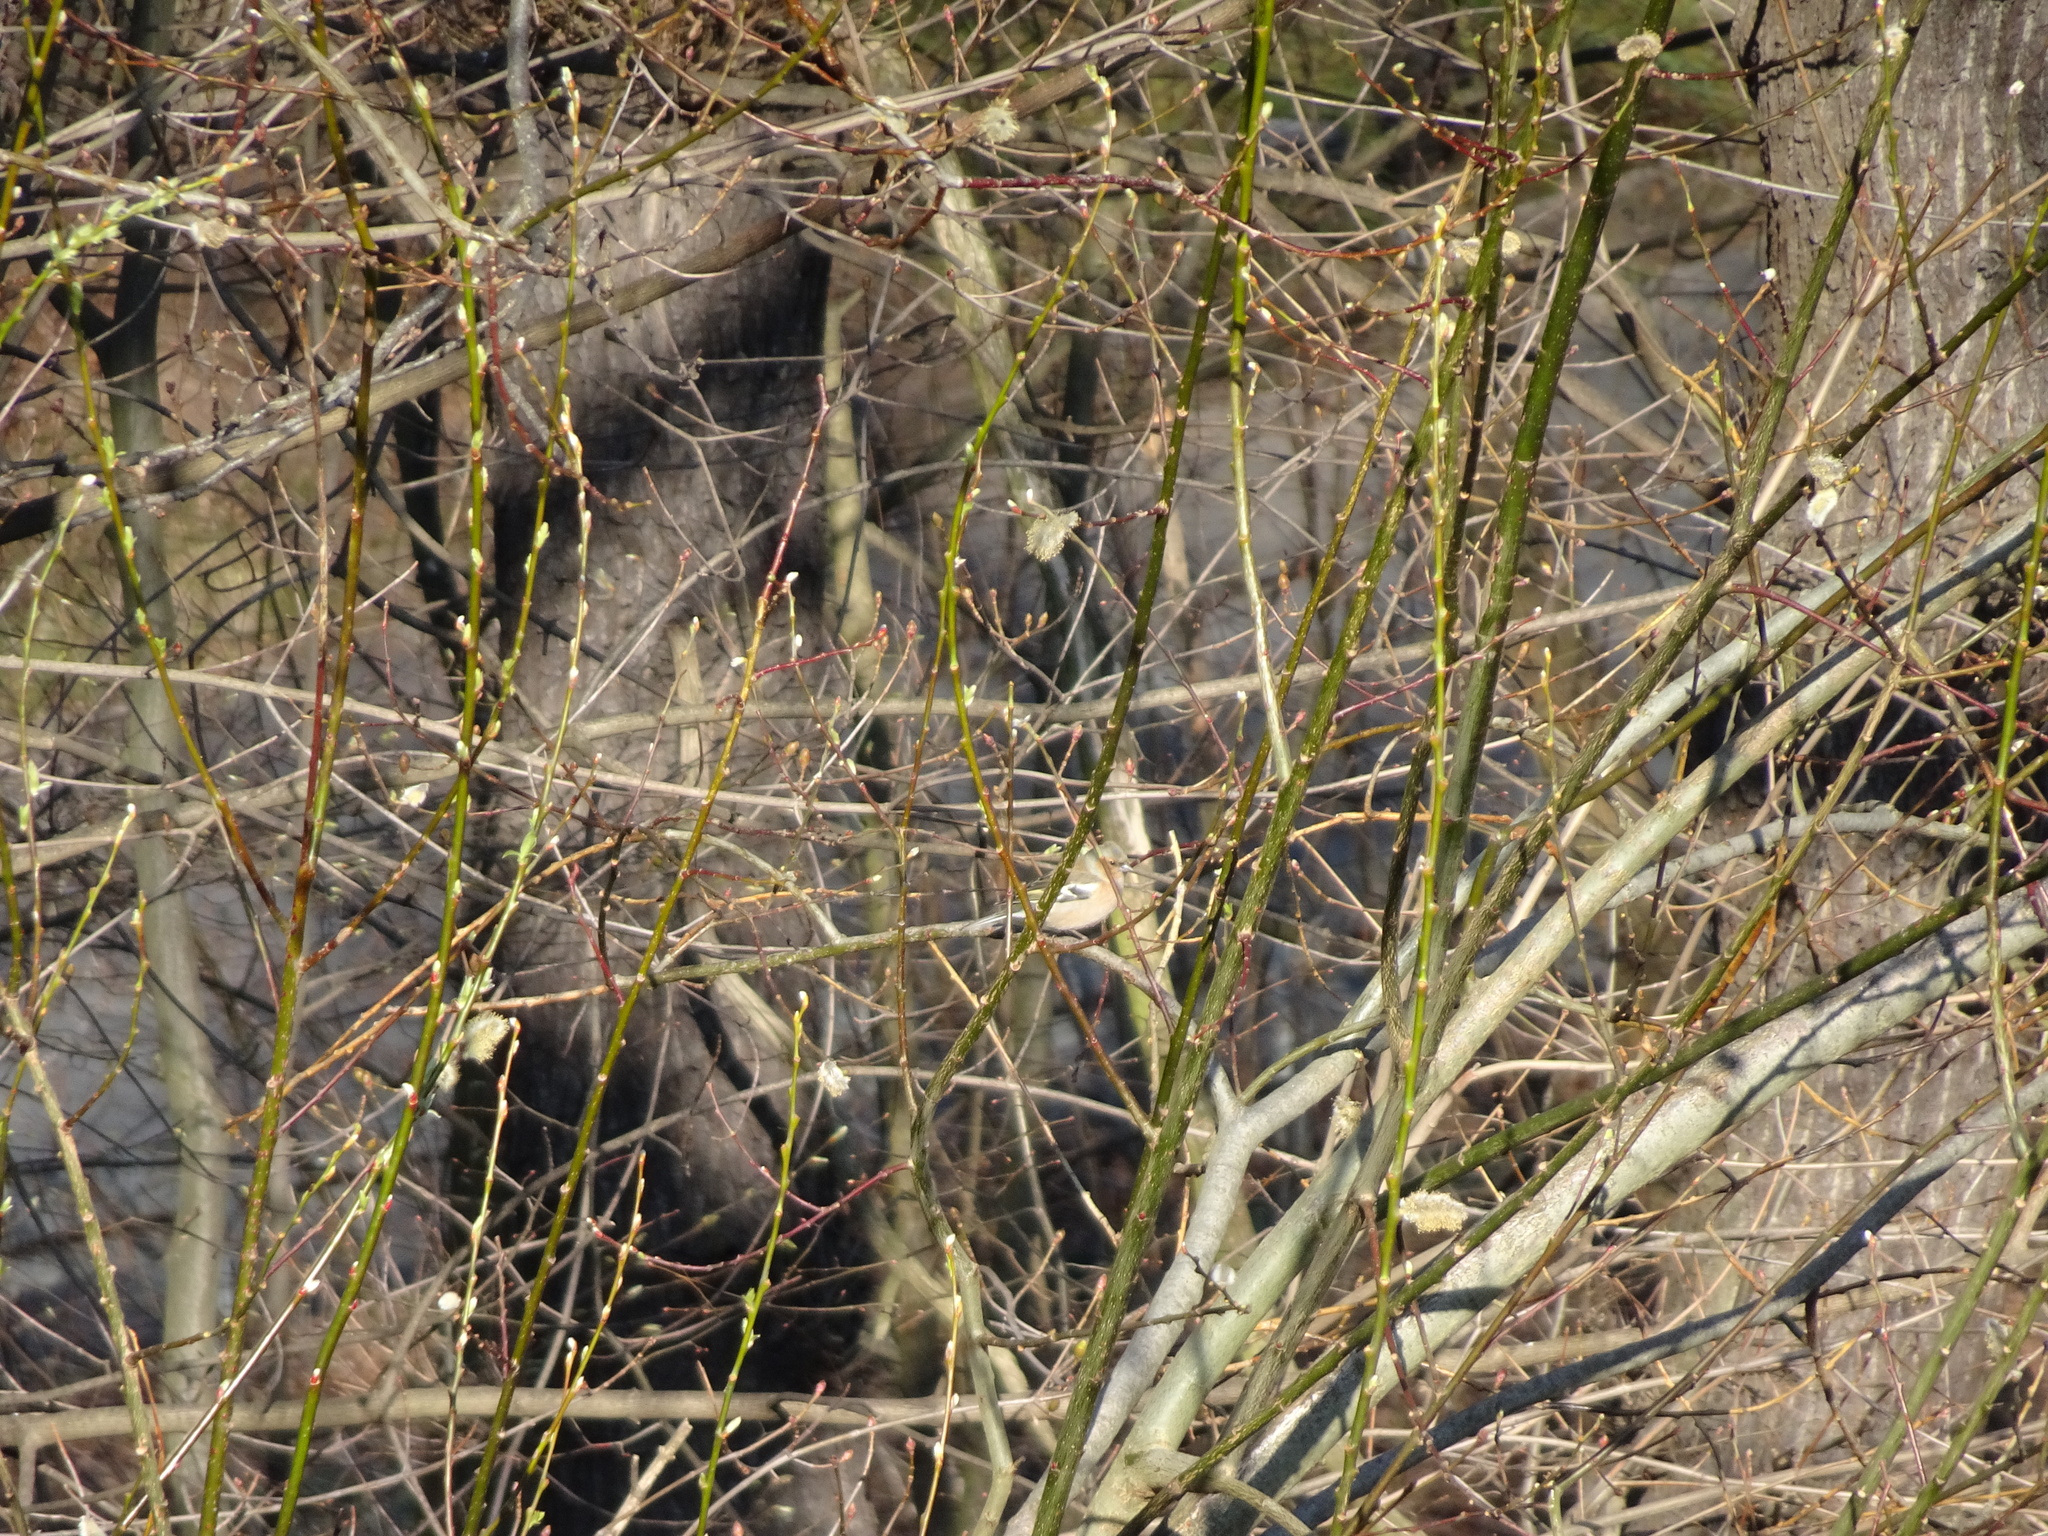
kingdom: Animalia
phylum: Chordata
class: Aves
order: Passeriformes
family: Fringillidae
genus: Fringilla
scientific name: Fringilla coelebs
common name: Common chaffinch
